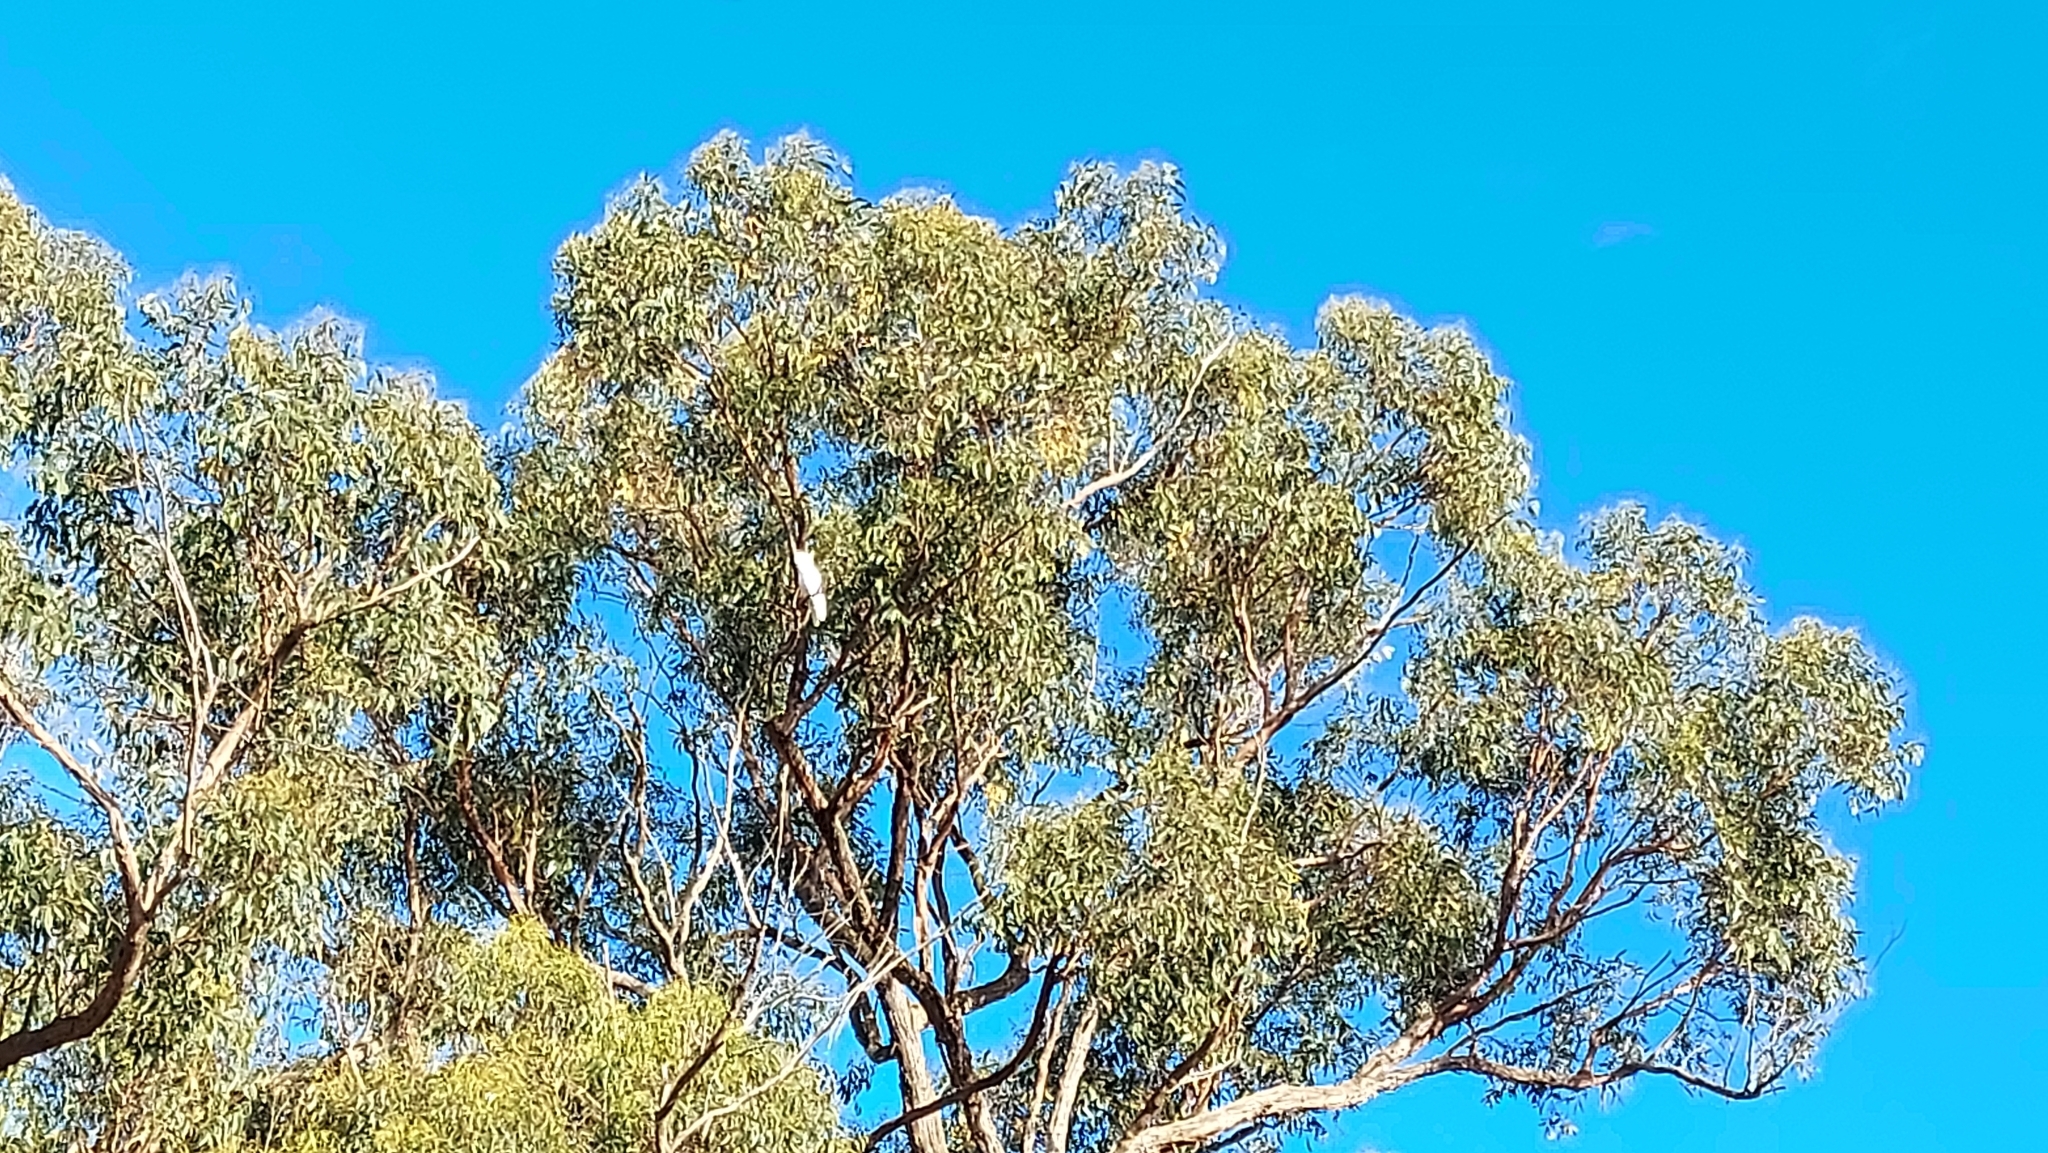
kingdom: Animalia
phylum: Chordata
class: Aves
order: Psittaciformes
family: Psittacidae
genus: Cacatua
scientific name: Cacatua galerita
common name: Sulphur-crested cockatoo
